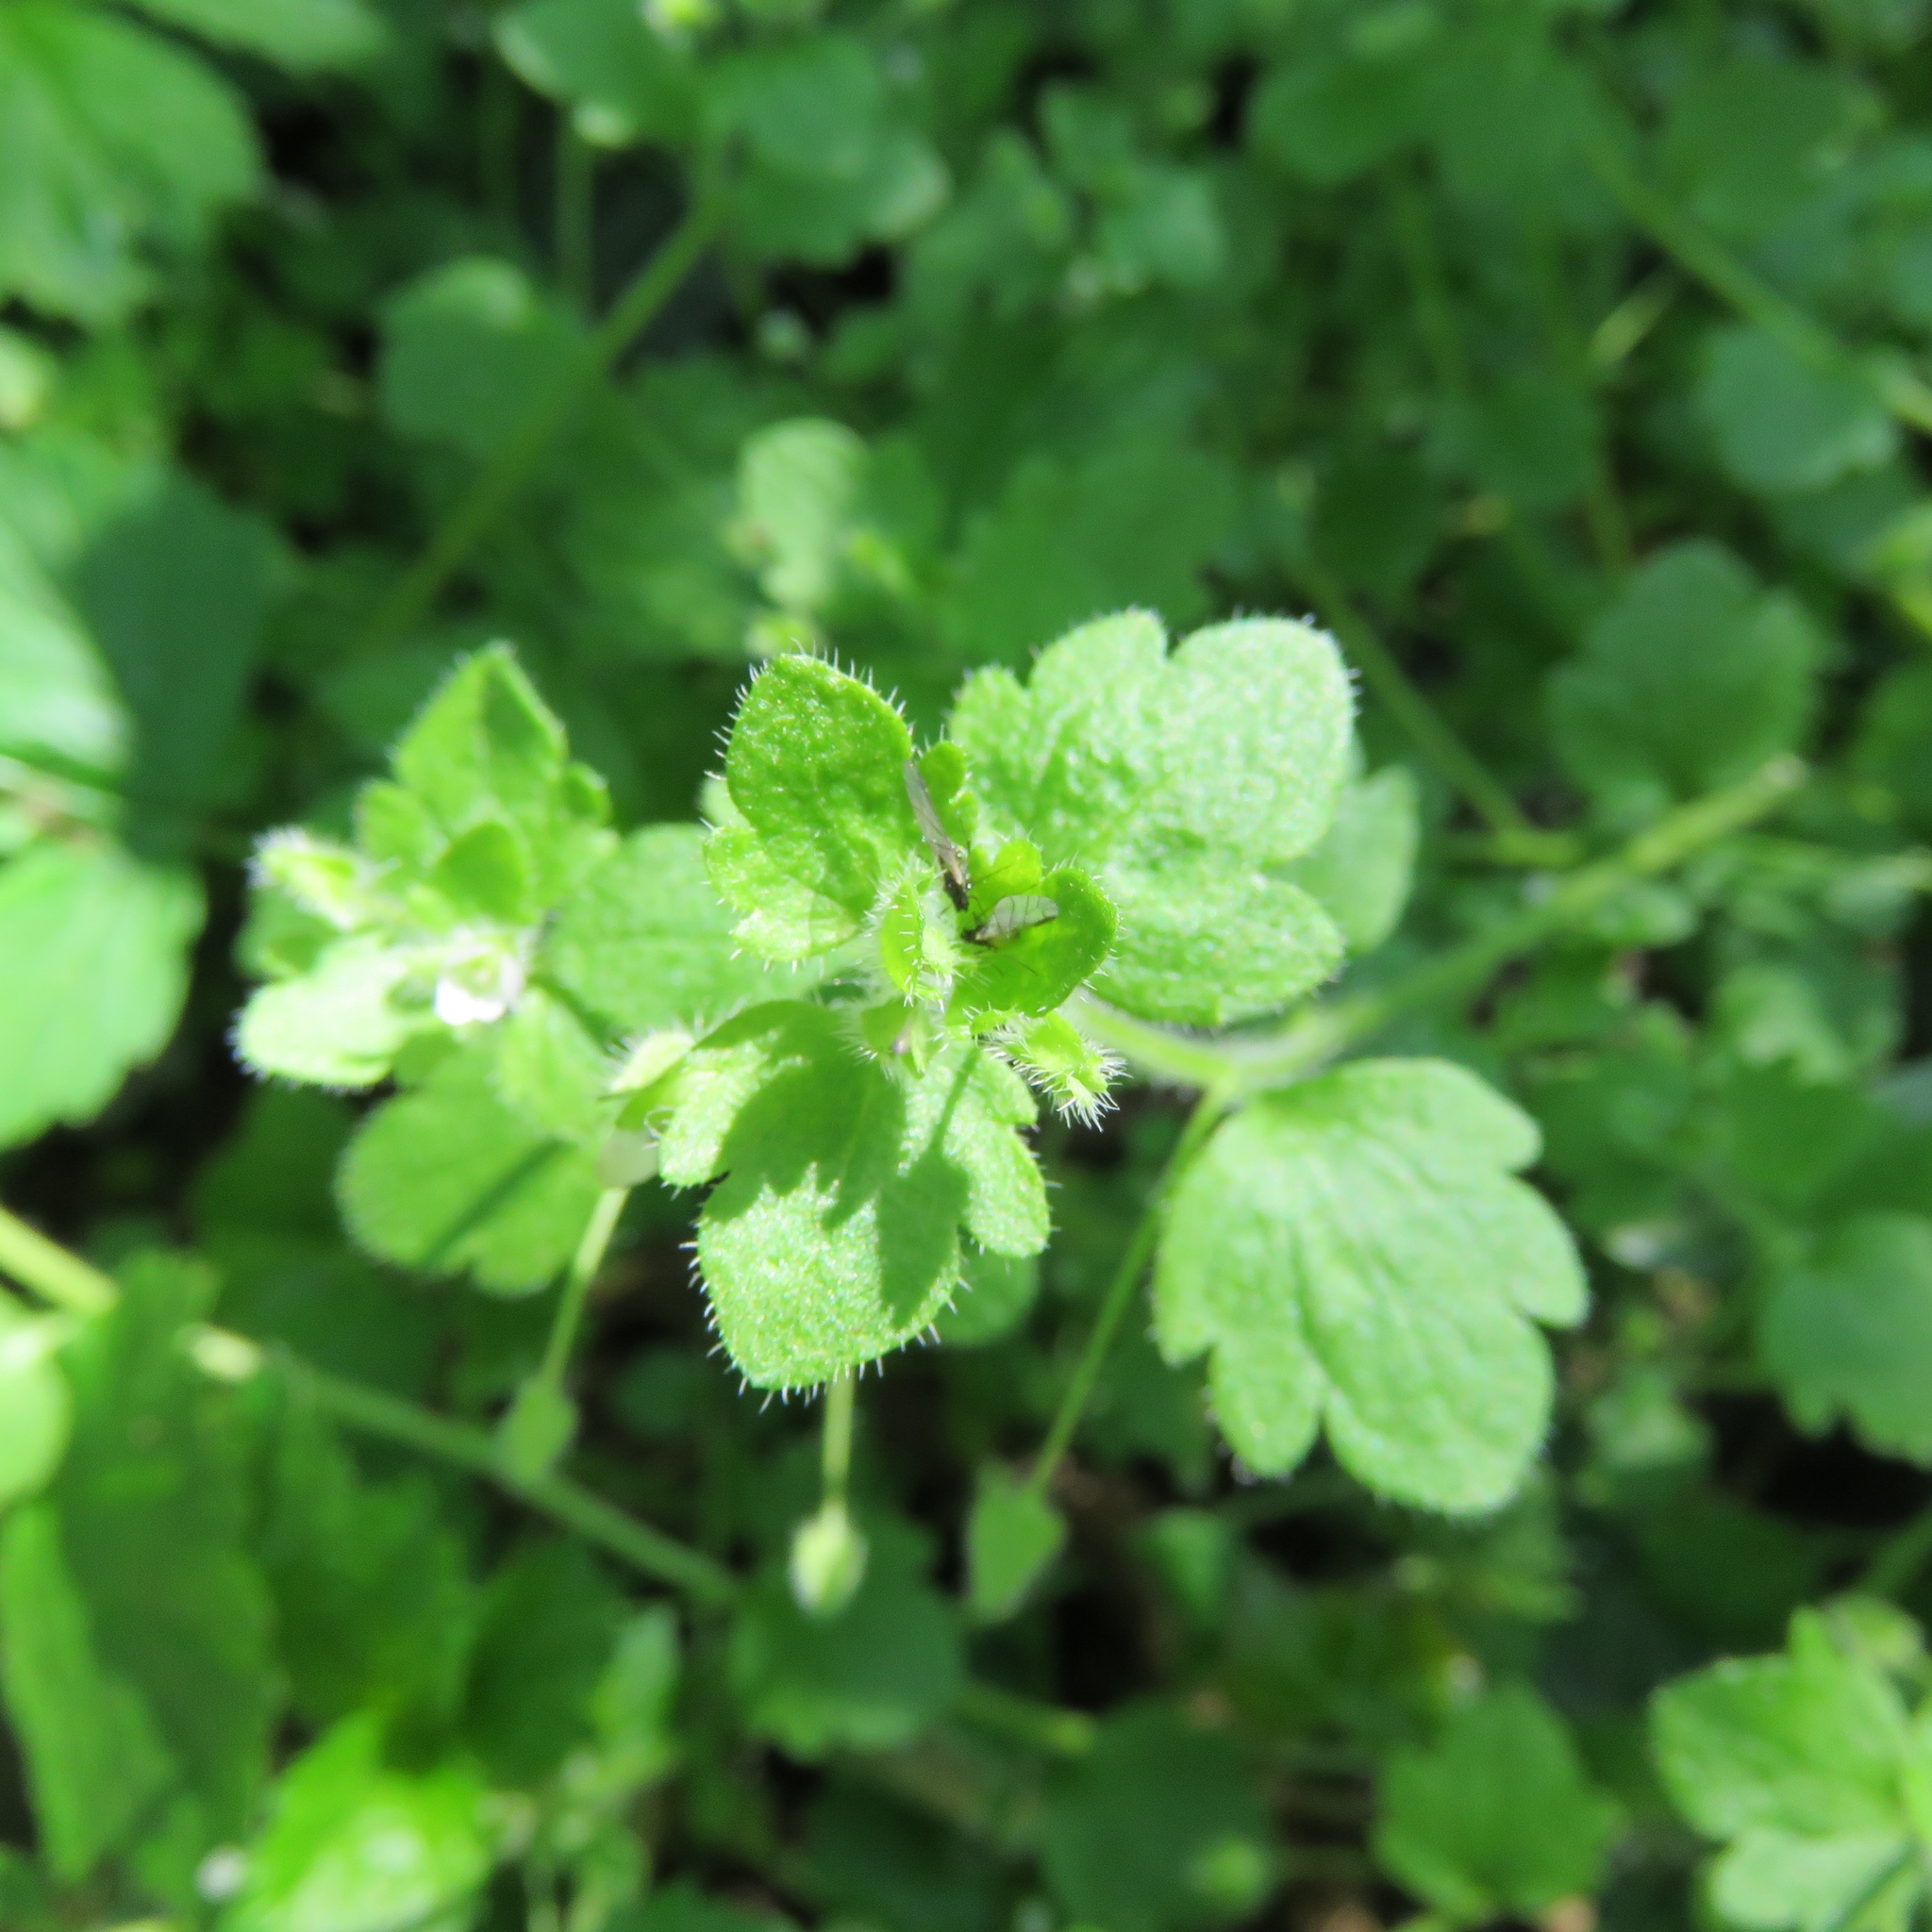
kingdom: Plantae
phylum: Tracheophyta
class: Magnoliopsida
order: Lamiales
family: Plantaginaceae
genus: Veronica
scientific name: Veronica hederifolia
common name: Ivy-leaved speedwell
